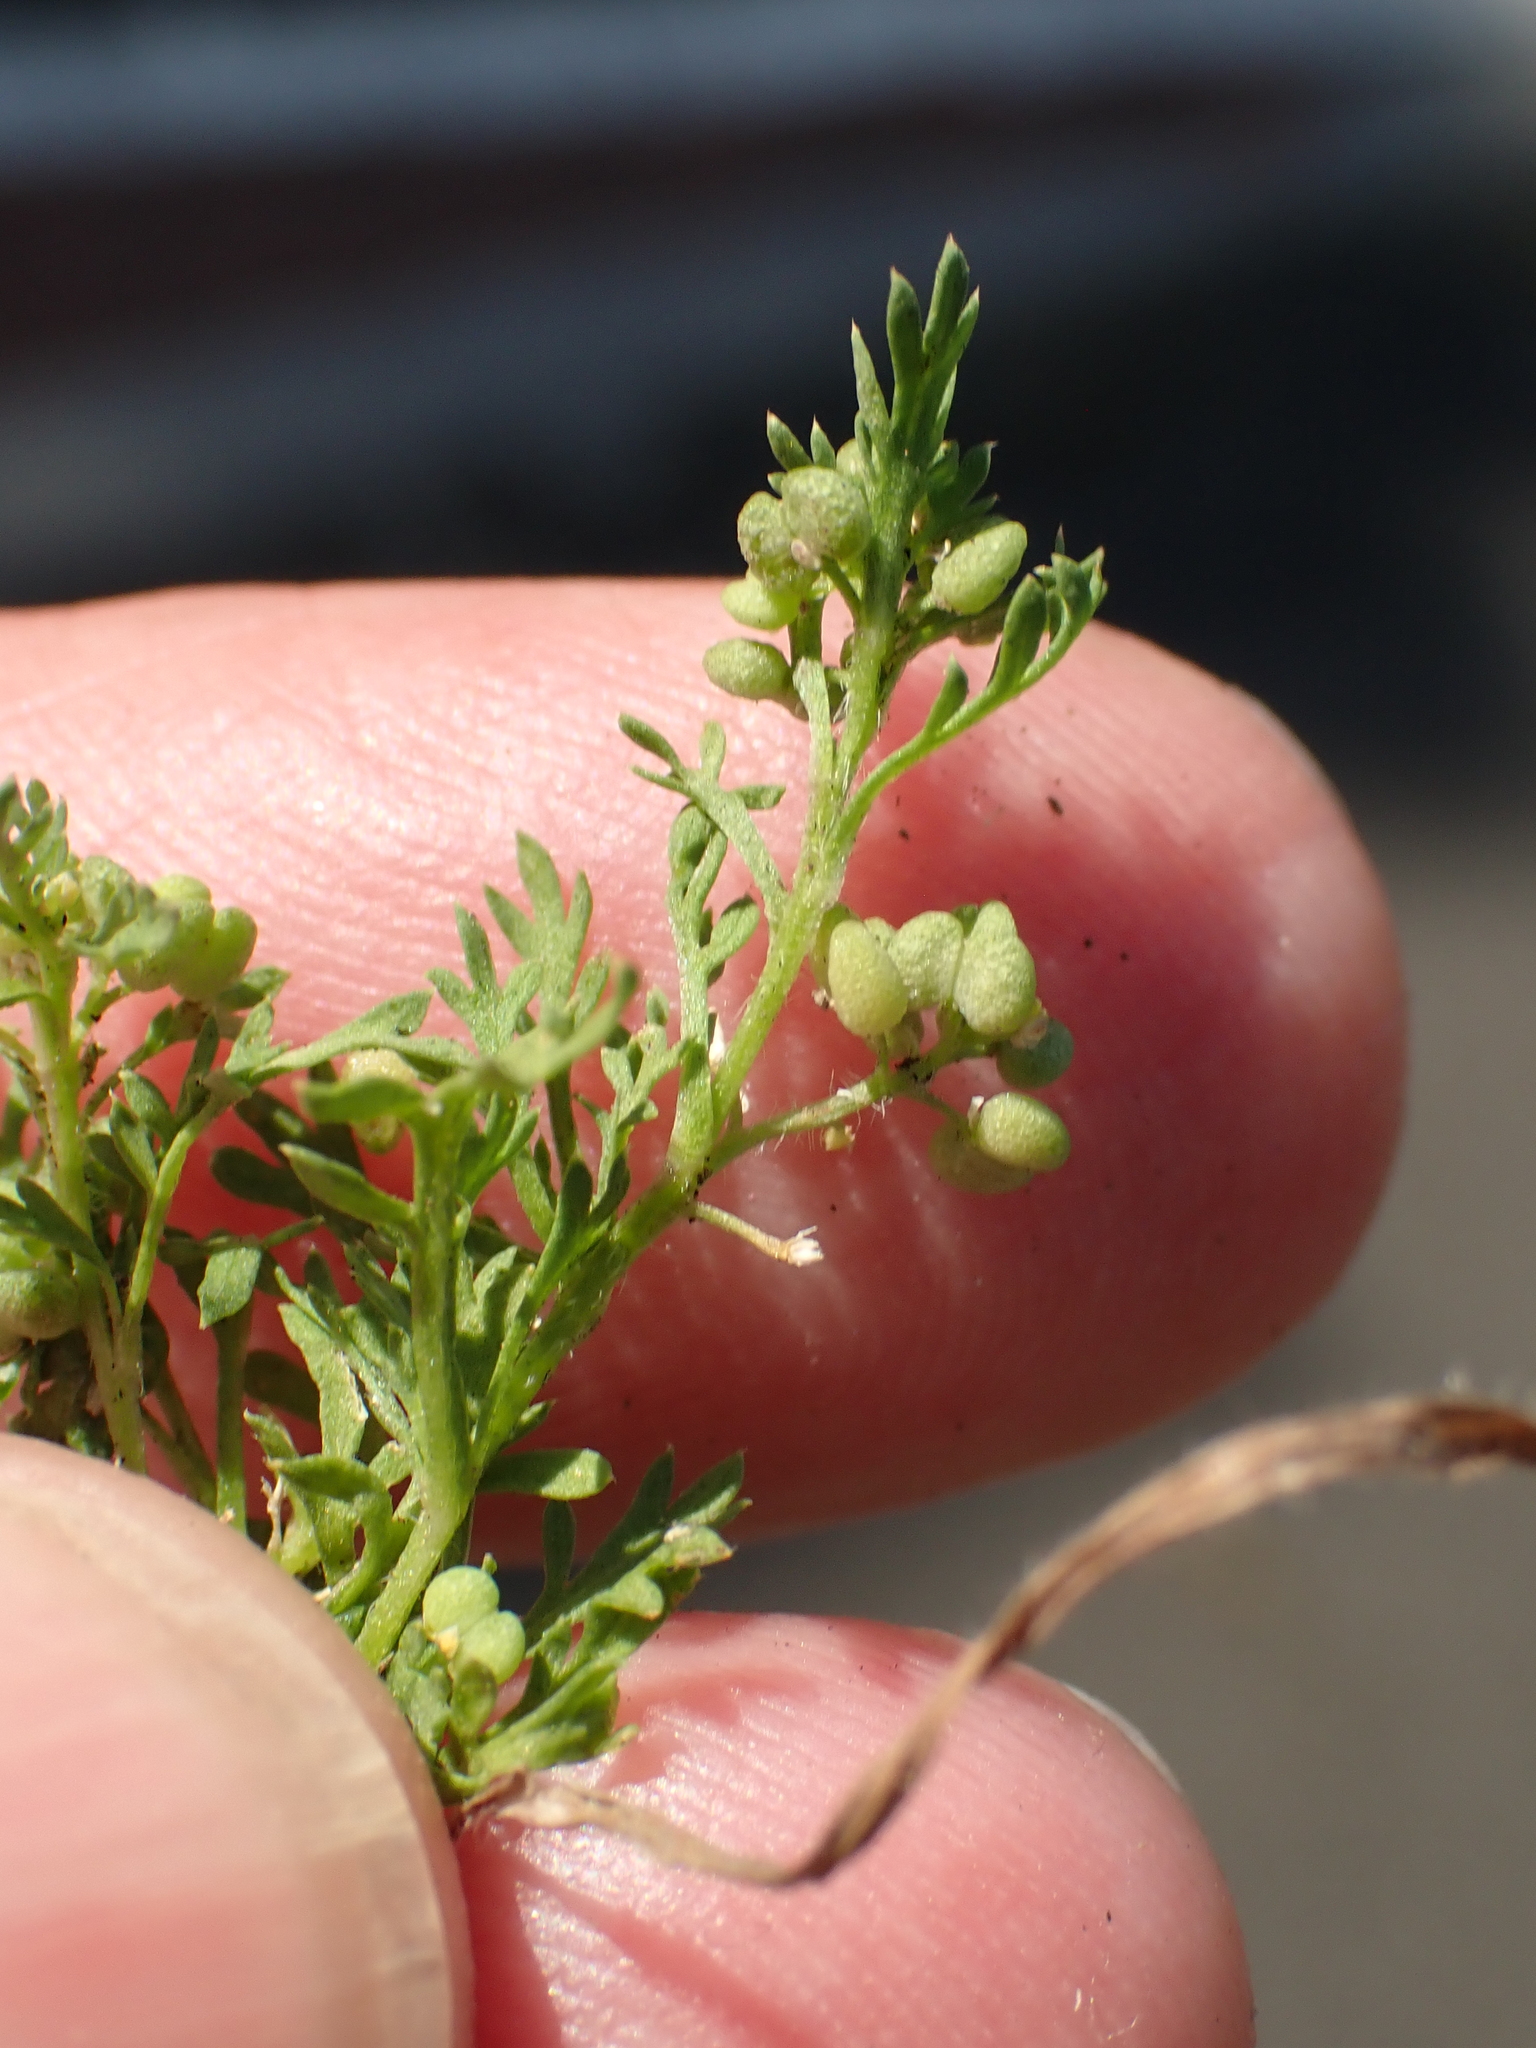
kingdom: Plantae
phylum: Tracheophyta
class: Magnoliopsida
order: Brassicales
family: Brassicaceae
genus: Lepidium
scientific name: Lepidium didymum
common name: Lesser swinecress
